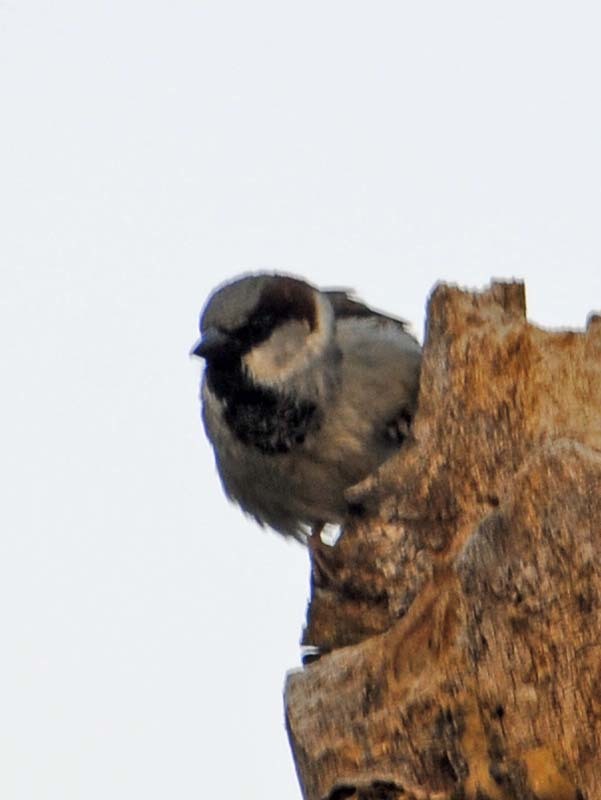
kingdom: Animalia
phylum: Chordata
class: Aves
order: Passeriformes
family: Passeridae
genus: Passer
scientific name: Passer domesticus
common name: House sparrow
